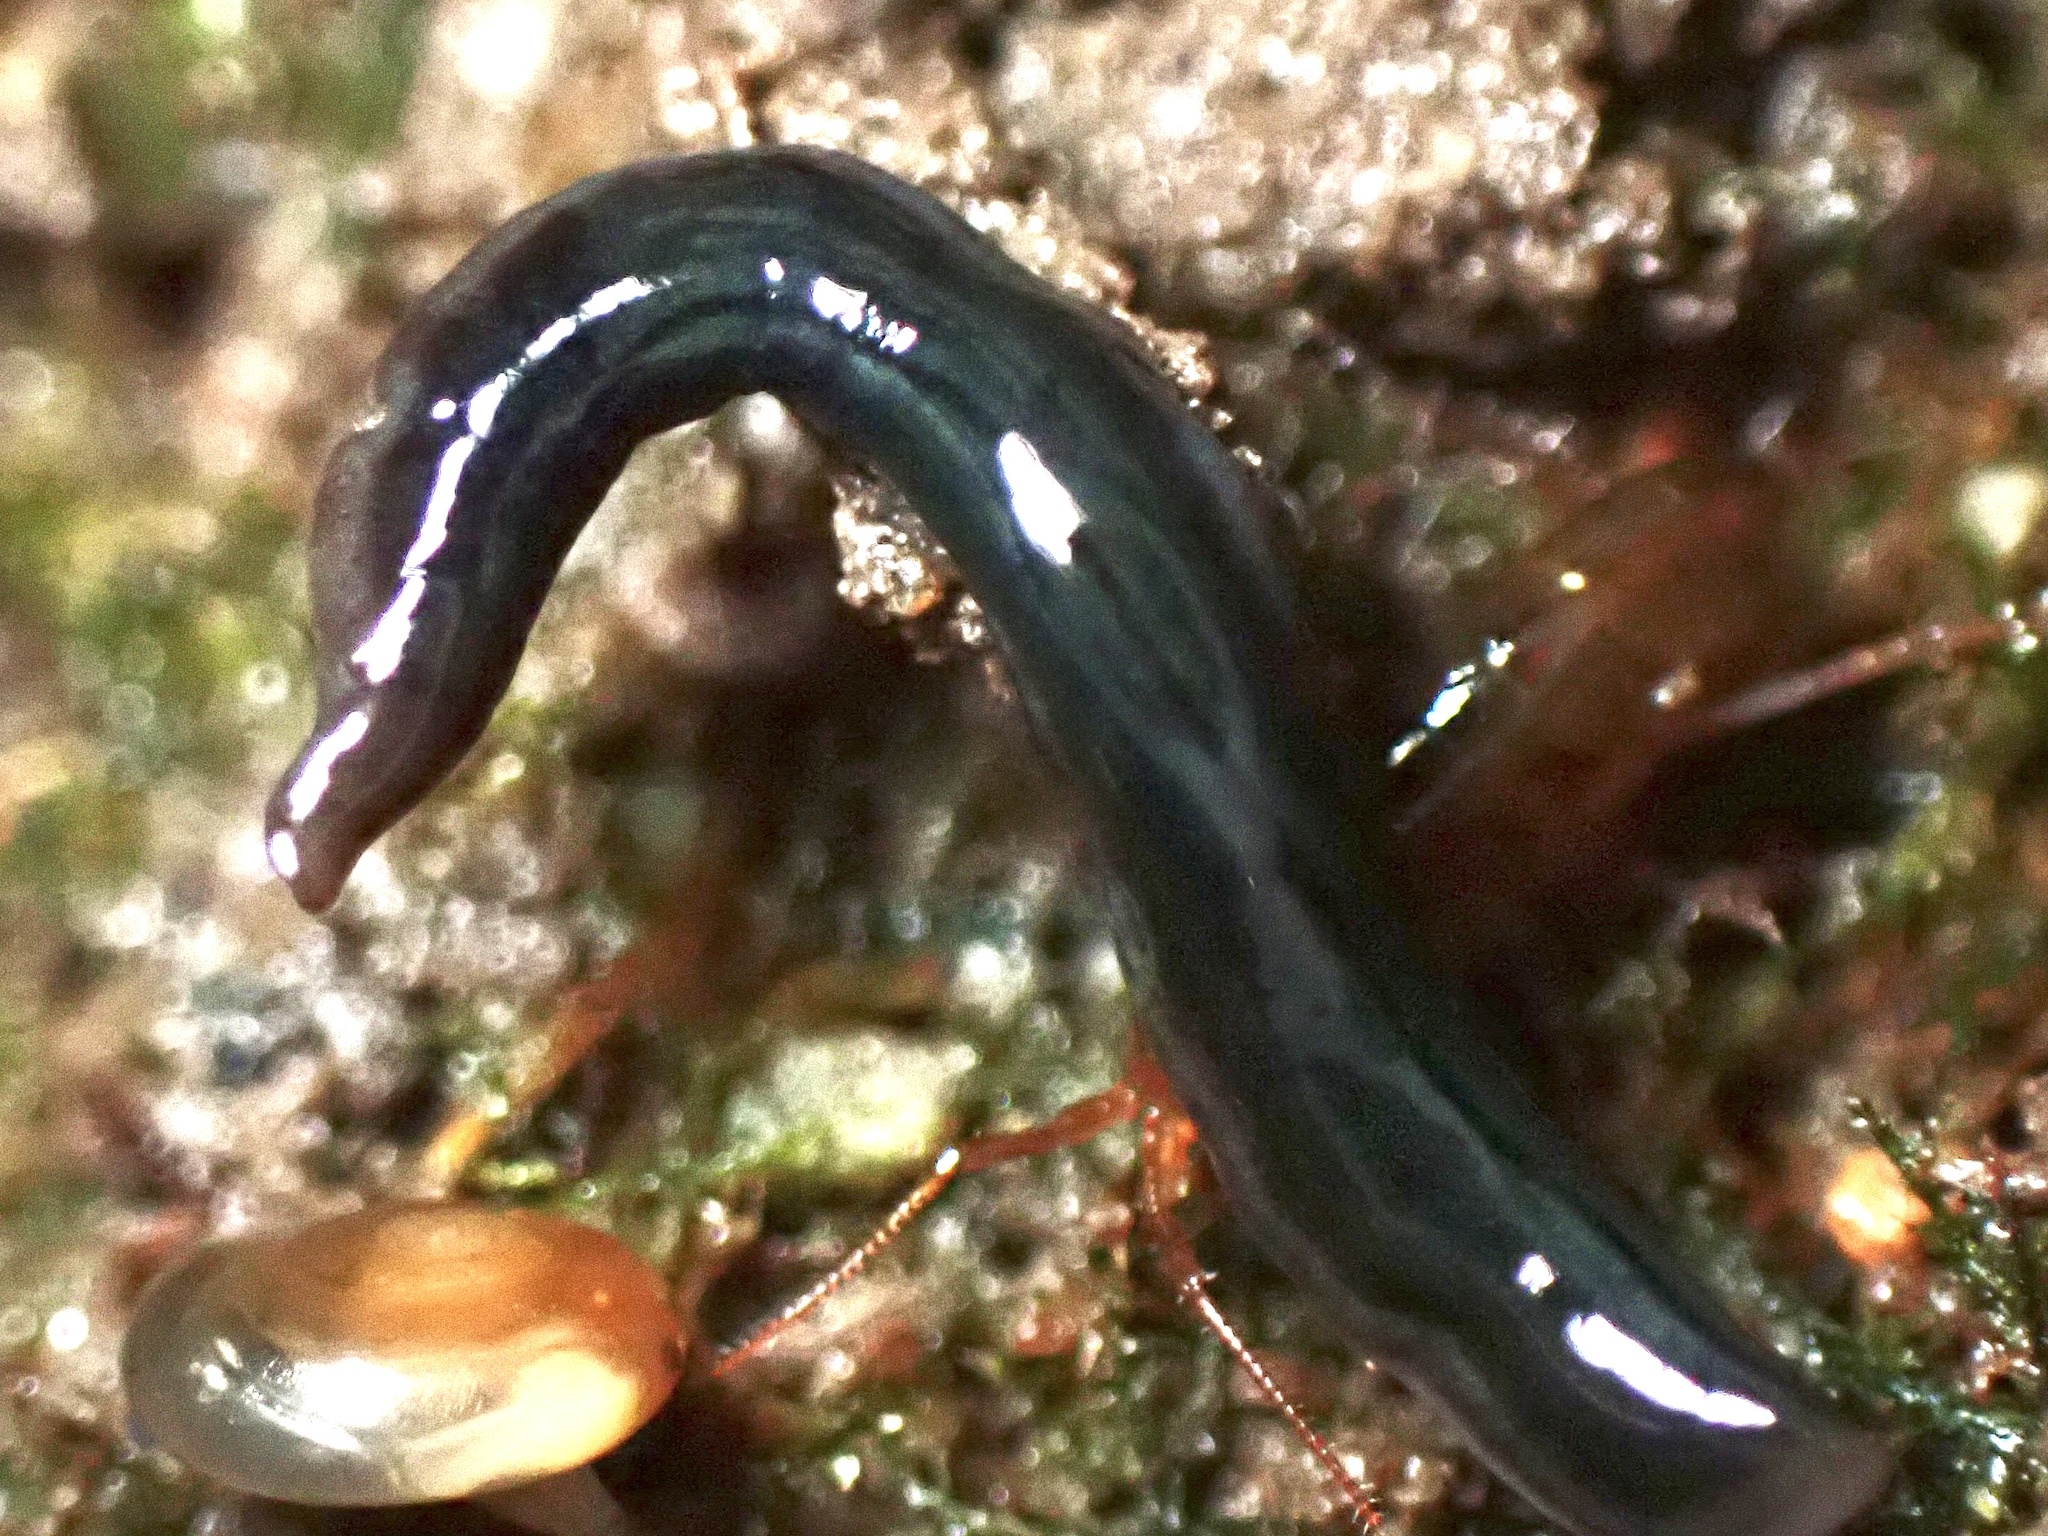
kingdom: Animalia
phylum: Platyhelminthes
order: Tricladida
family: Geoplanidae
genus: Parakontikia
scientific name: Parakontikia ventrolineata
